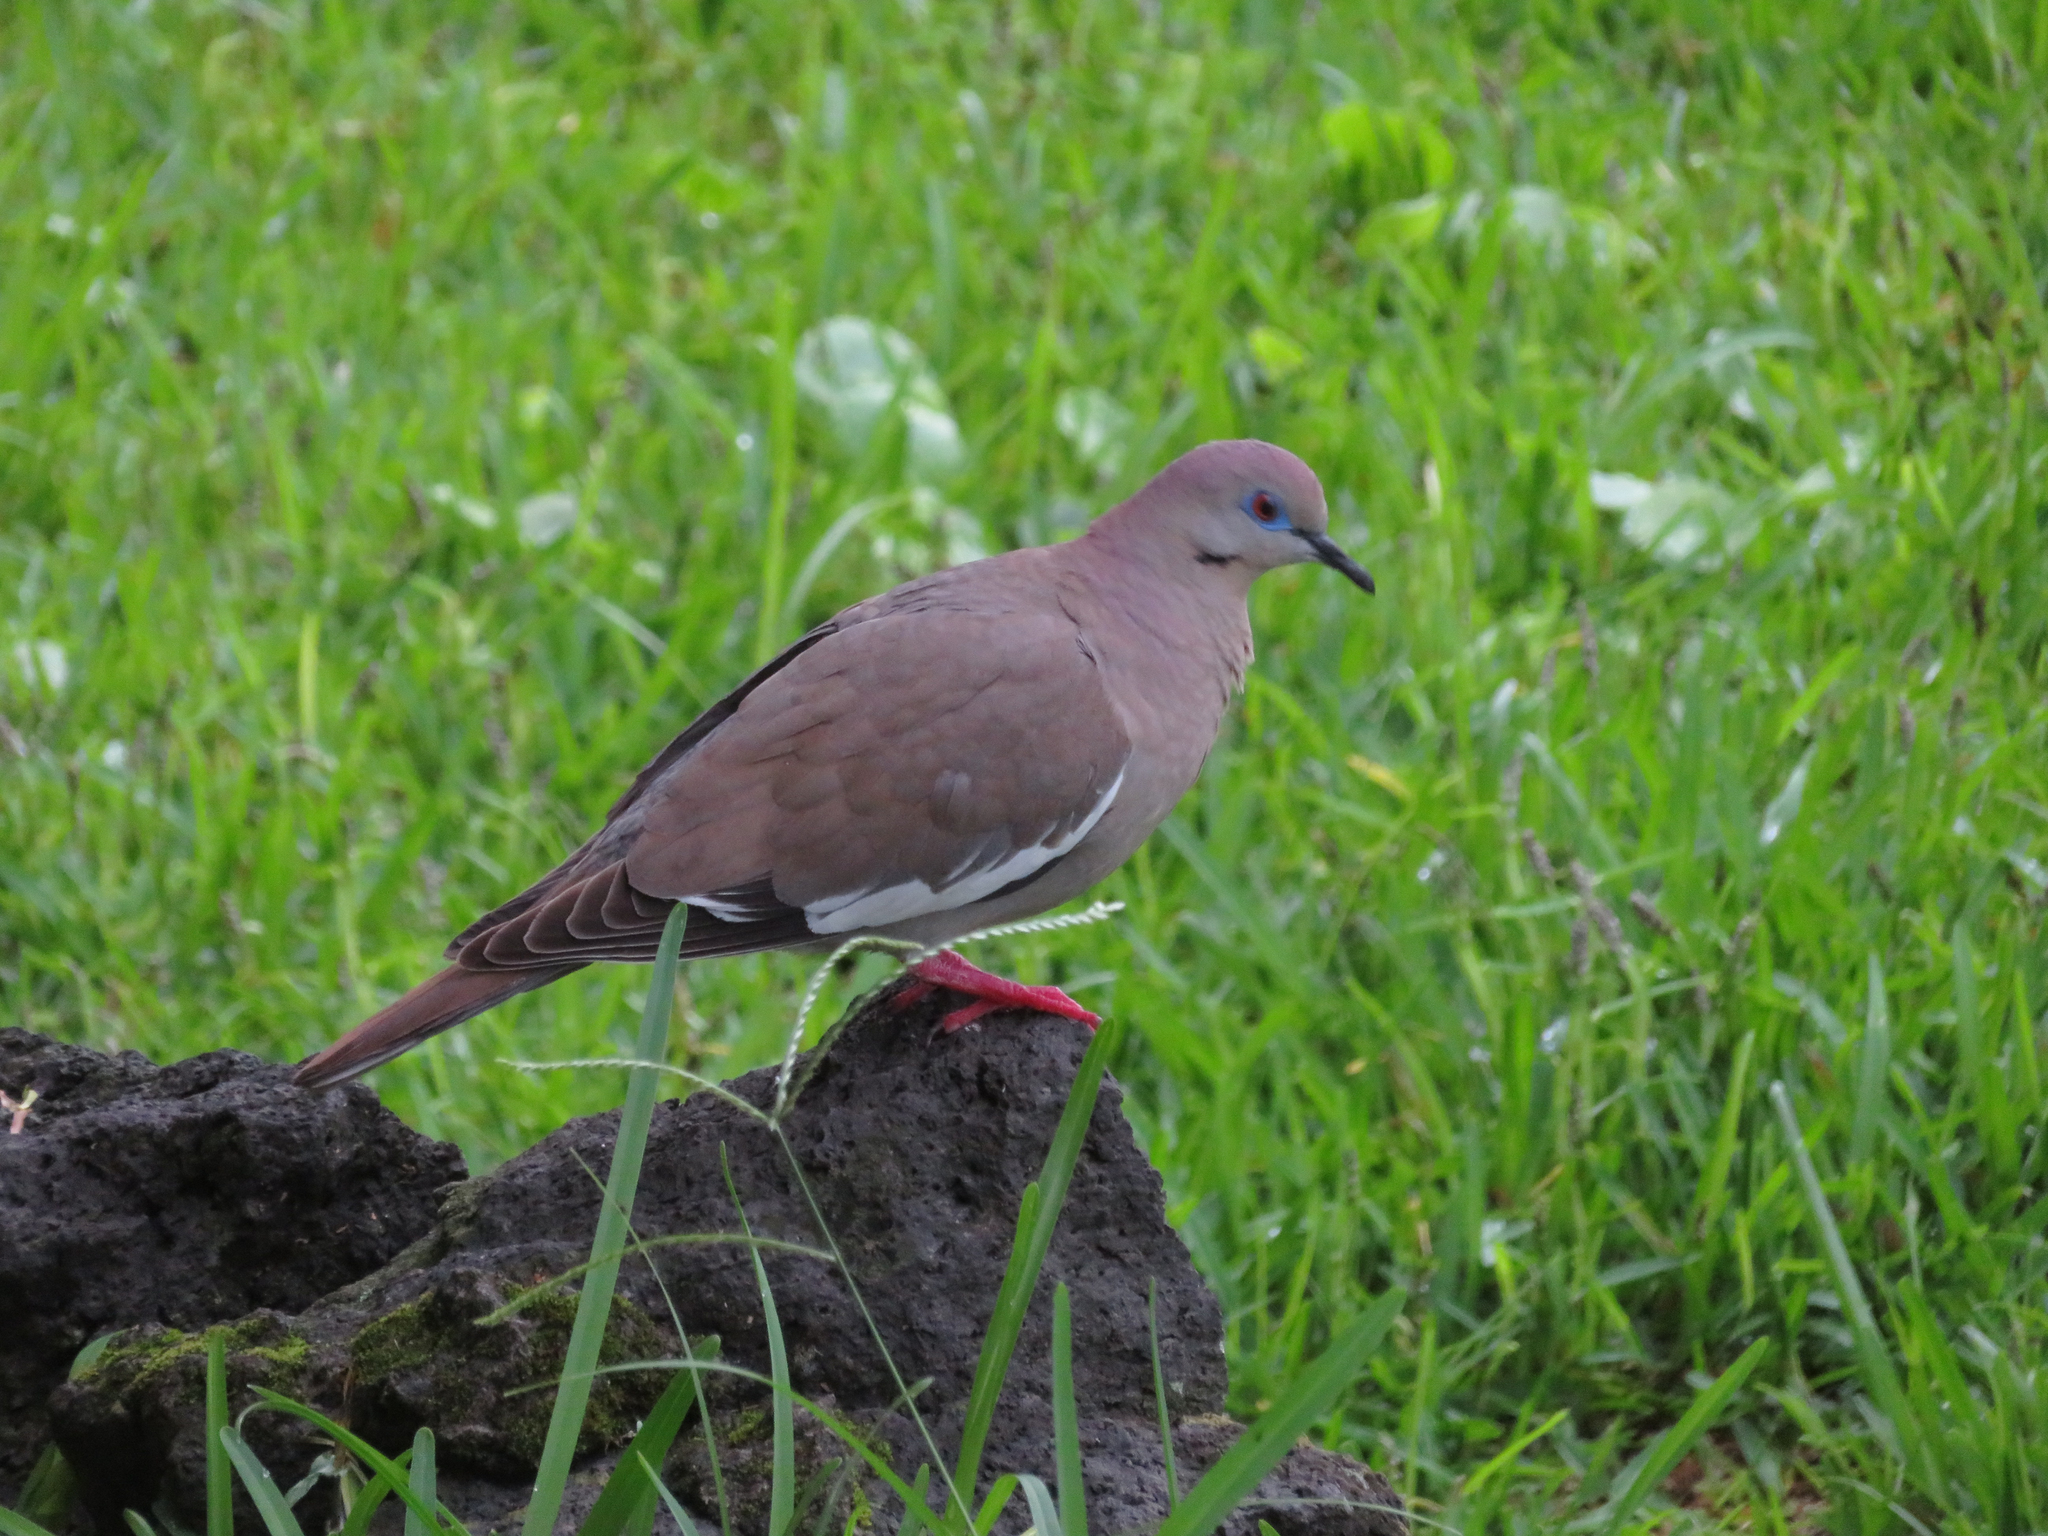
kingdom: Animalia
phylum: Chordata
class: Aves
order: Columbiformes
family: Columbidae
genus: Zenaida
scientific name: Zenaida asiatica
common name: White-winged dove
